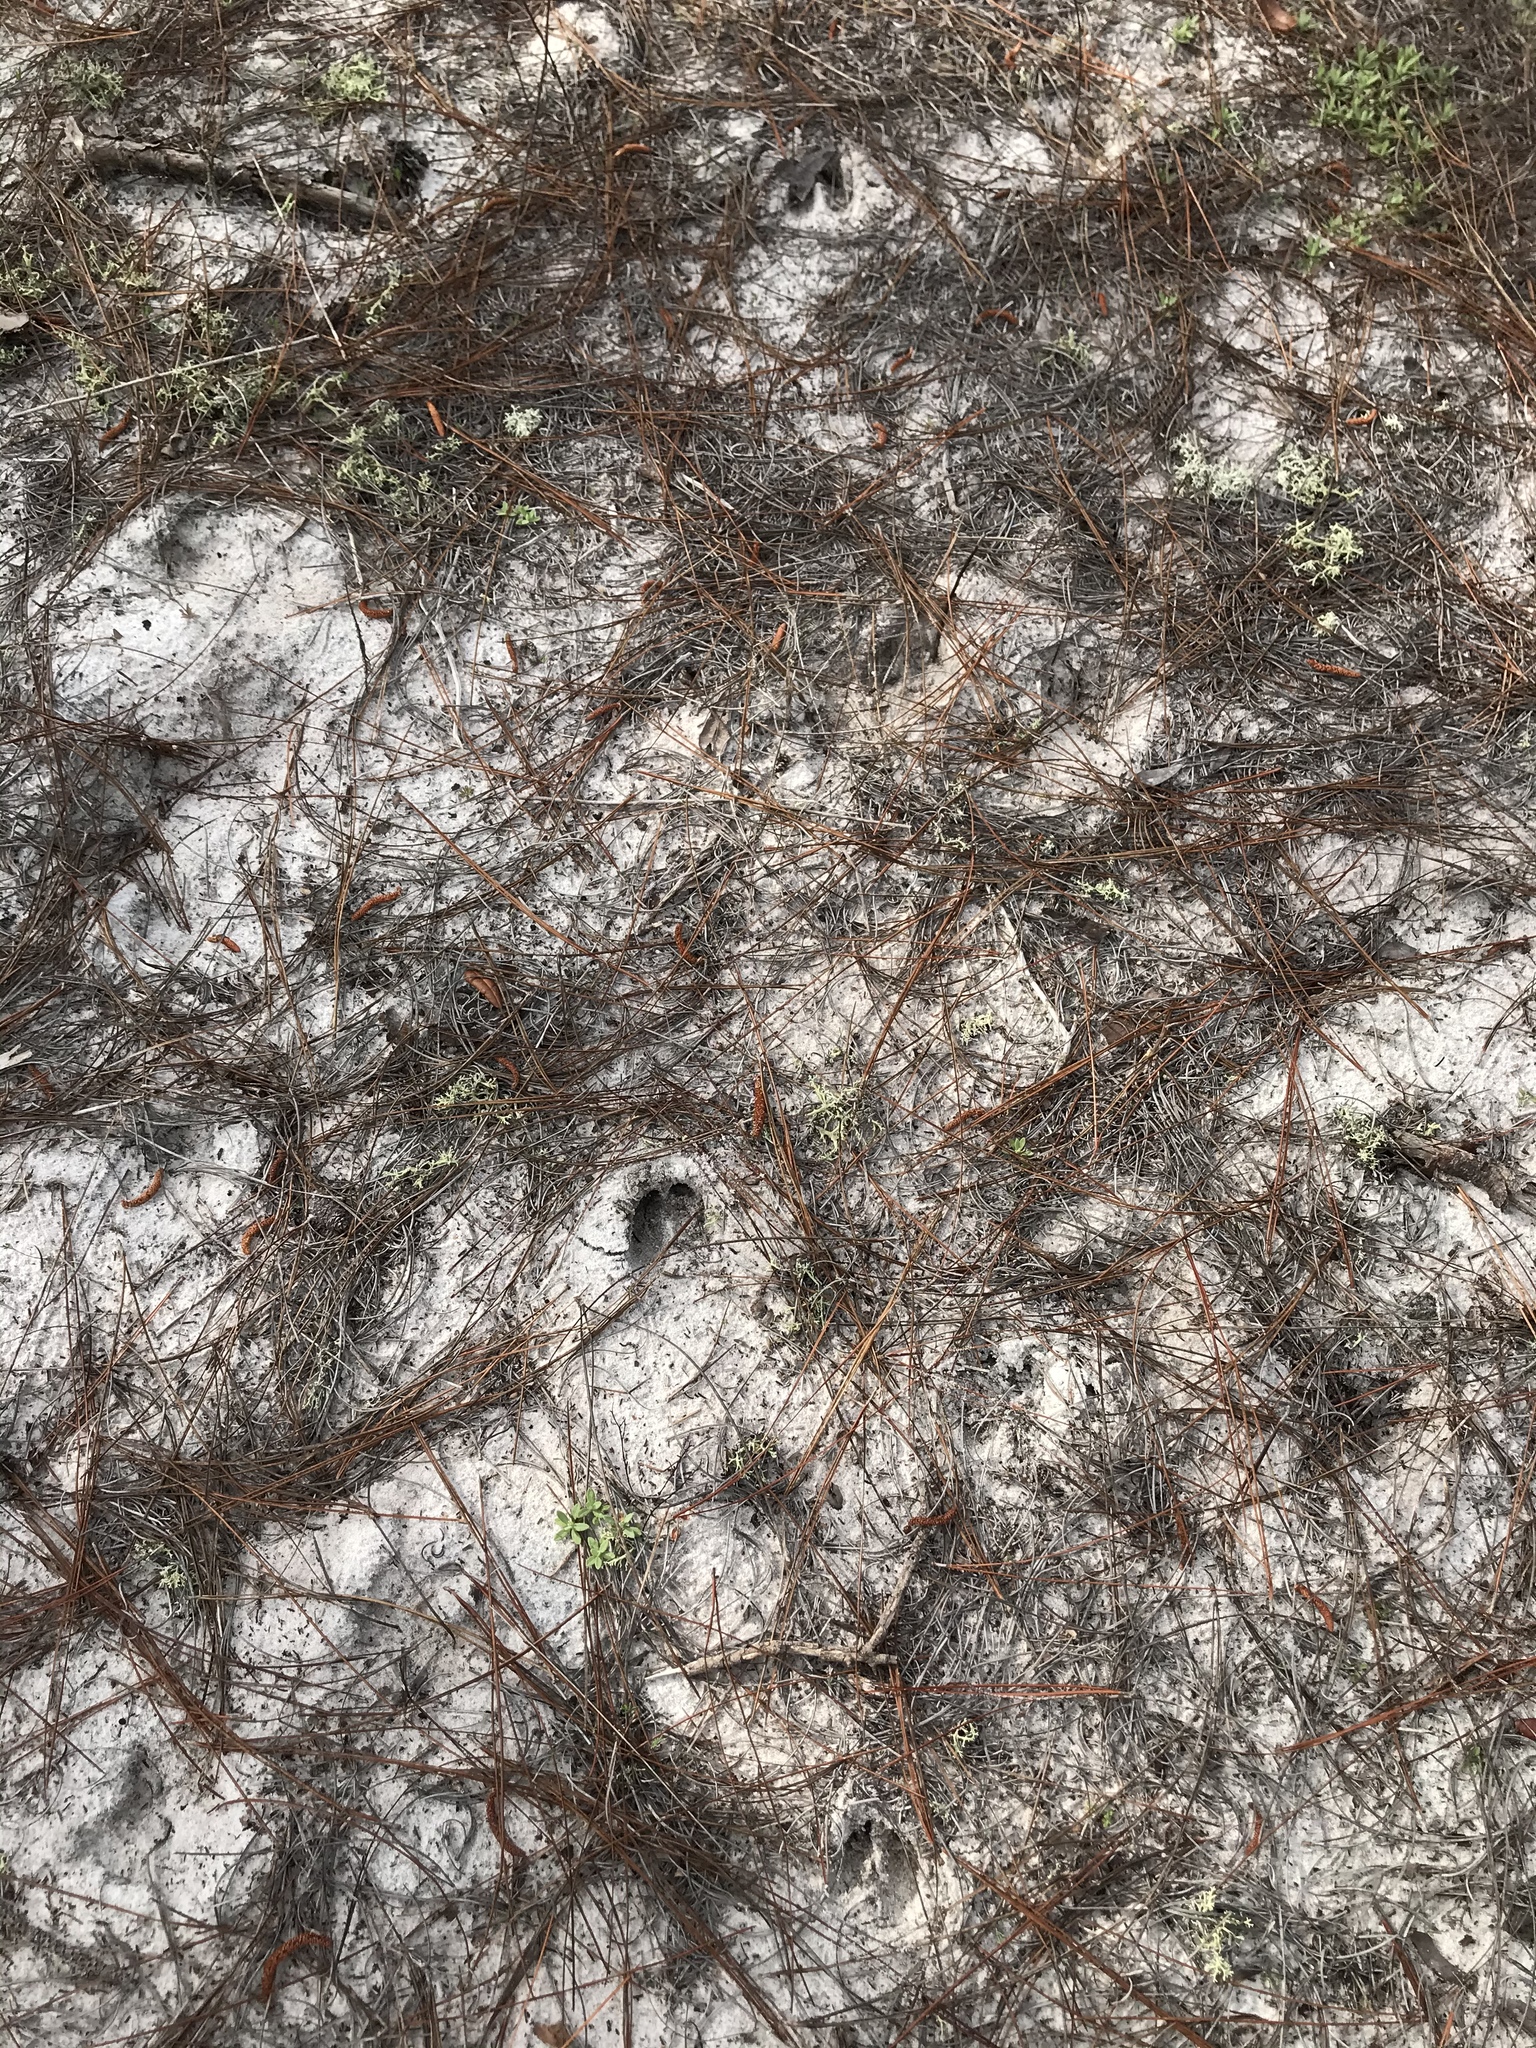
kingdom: Animalia
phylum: Chordata
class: Mammalia
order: Artiodactyla
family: Cervidae
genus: Odocoileus
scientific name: Odocoileus virginianus
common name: White-tailed deer
